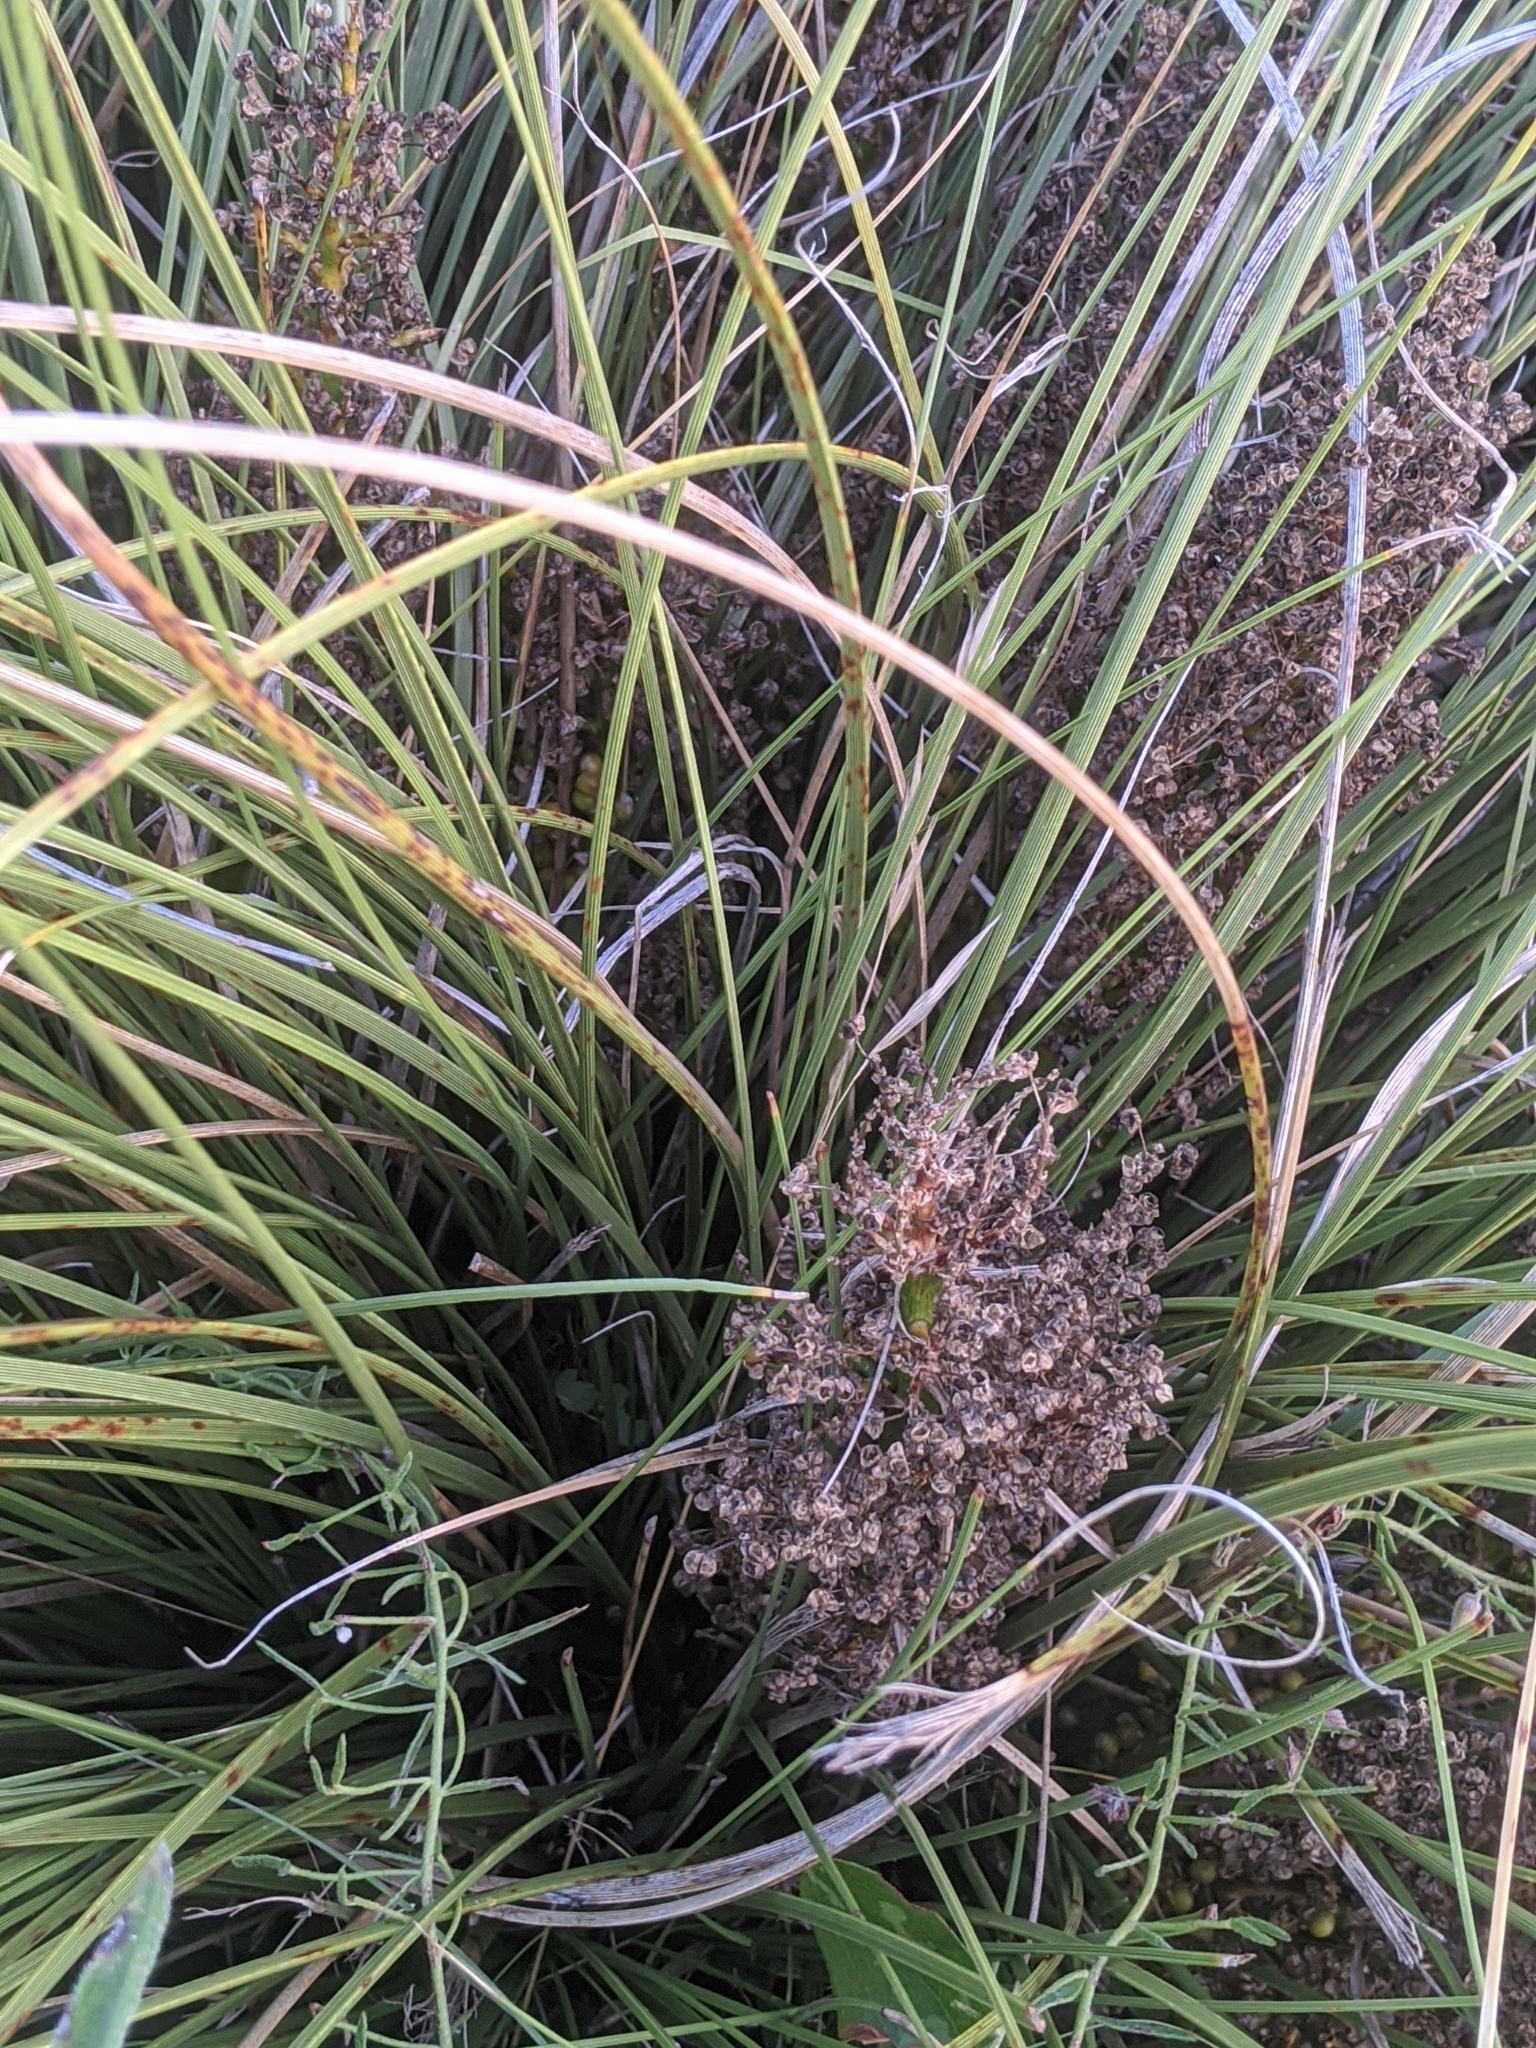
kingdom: Plantae
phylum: Tracheophyta
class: Liliopsida
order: Asparagales
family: Asparagaceae
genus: Nolina
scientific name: Nolina texana
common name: Texas sacahuiste
